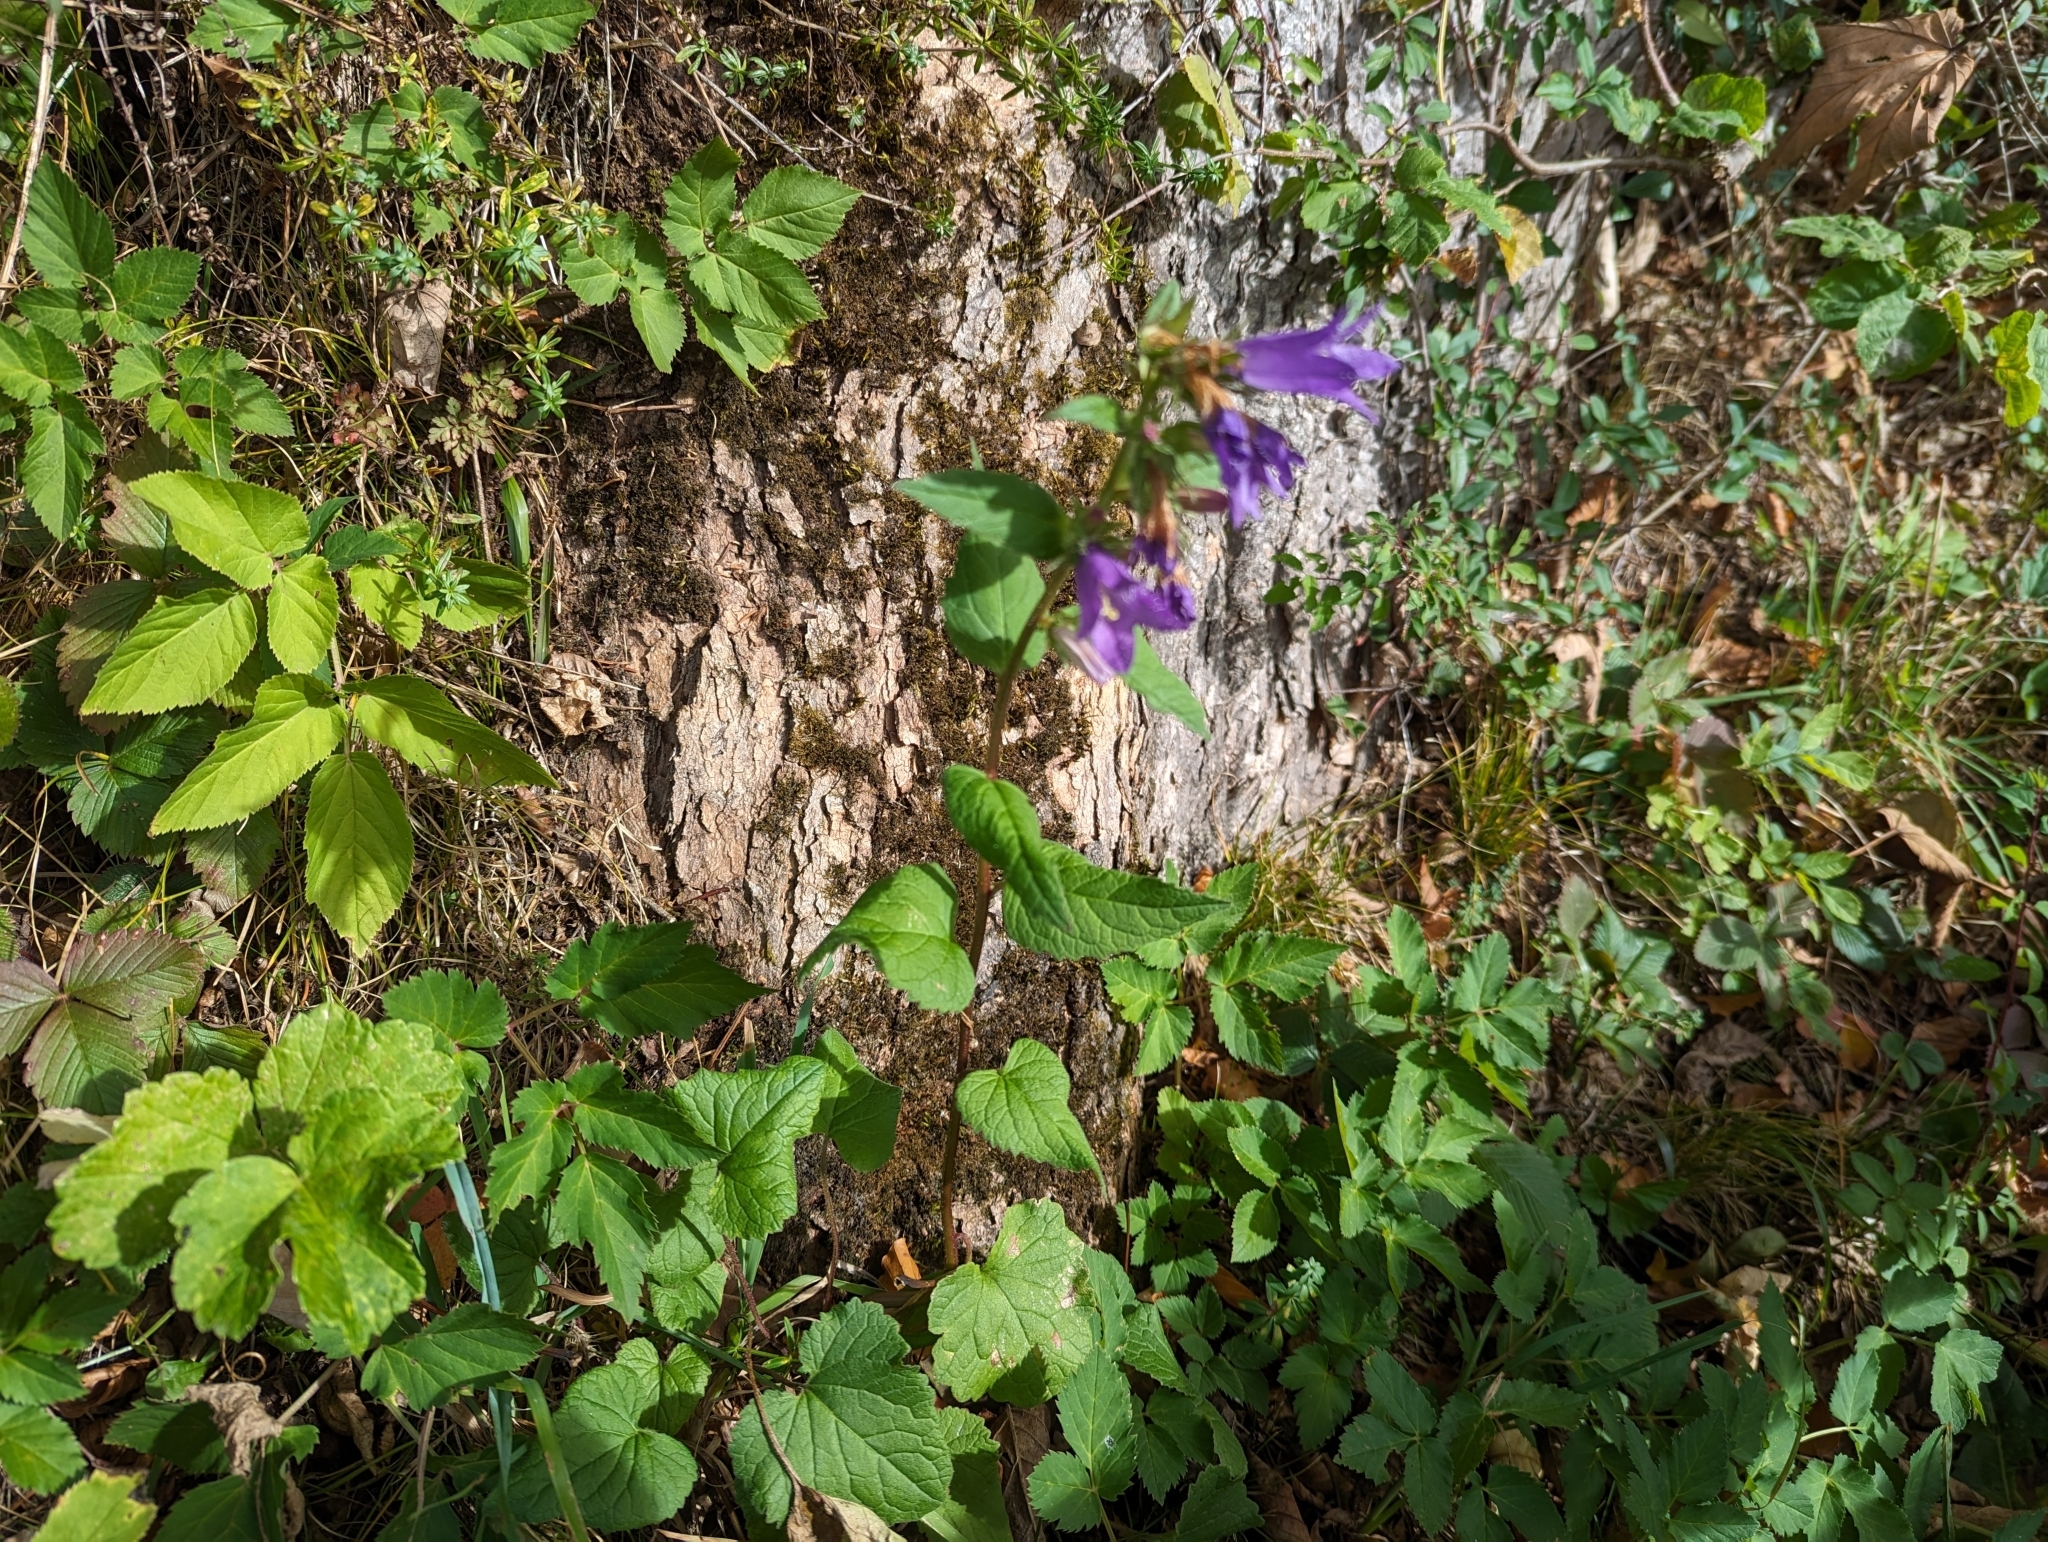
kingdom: Plantae
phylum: Tracheophyta
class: Magnoliopsida
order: Asterales
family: Campanulaceae
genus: Campanula
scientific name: Campanula trachelium
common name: Nettle-leaved bellflower
